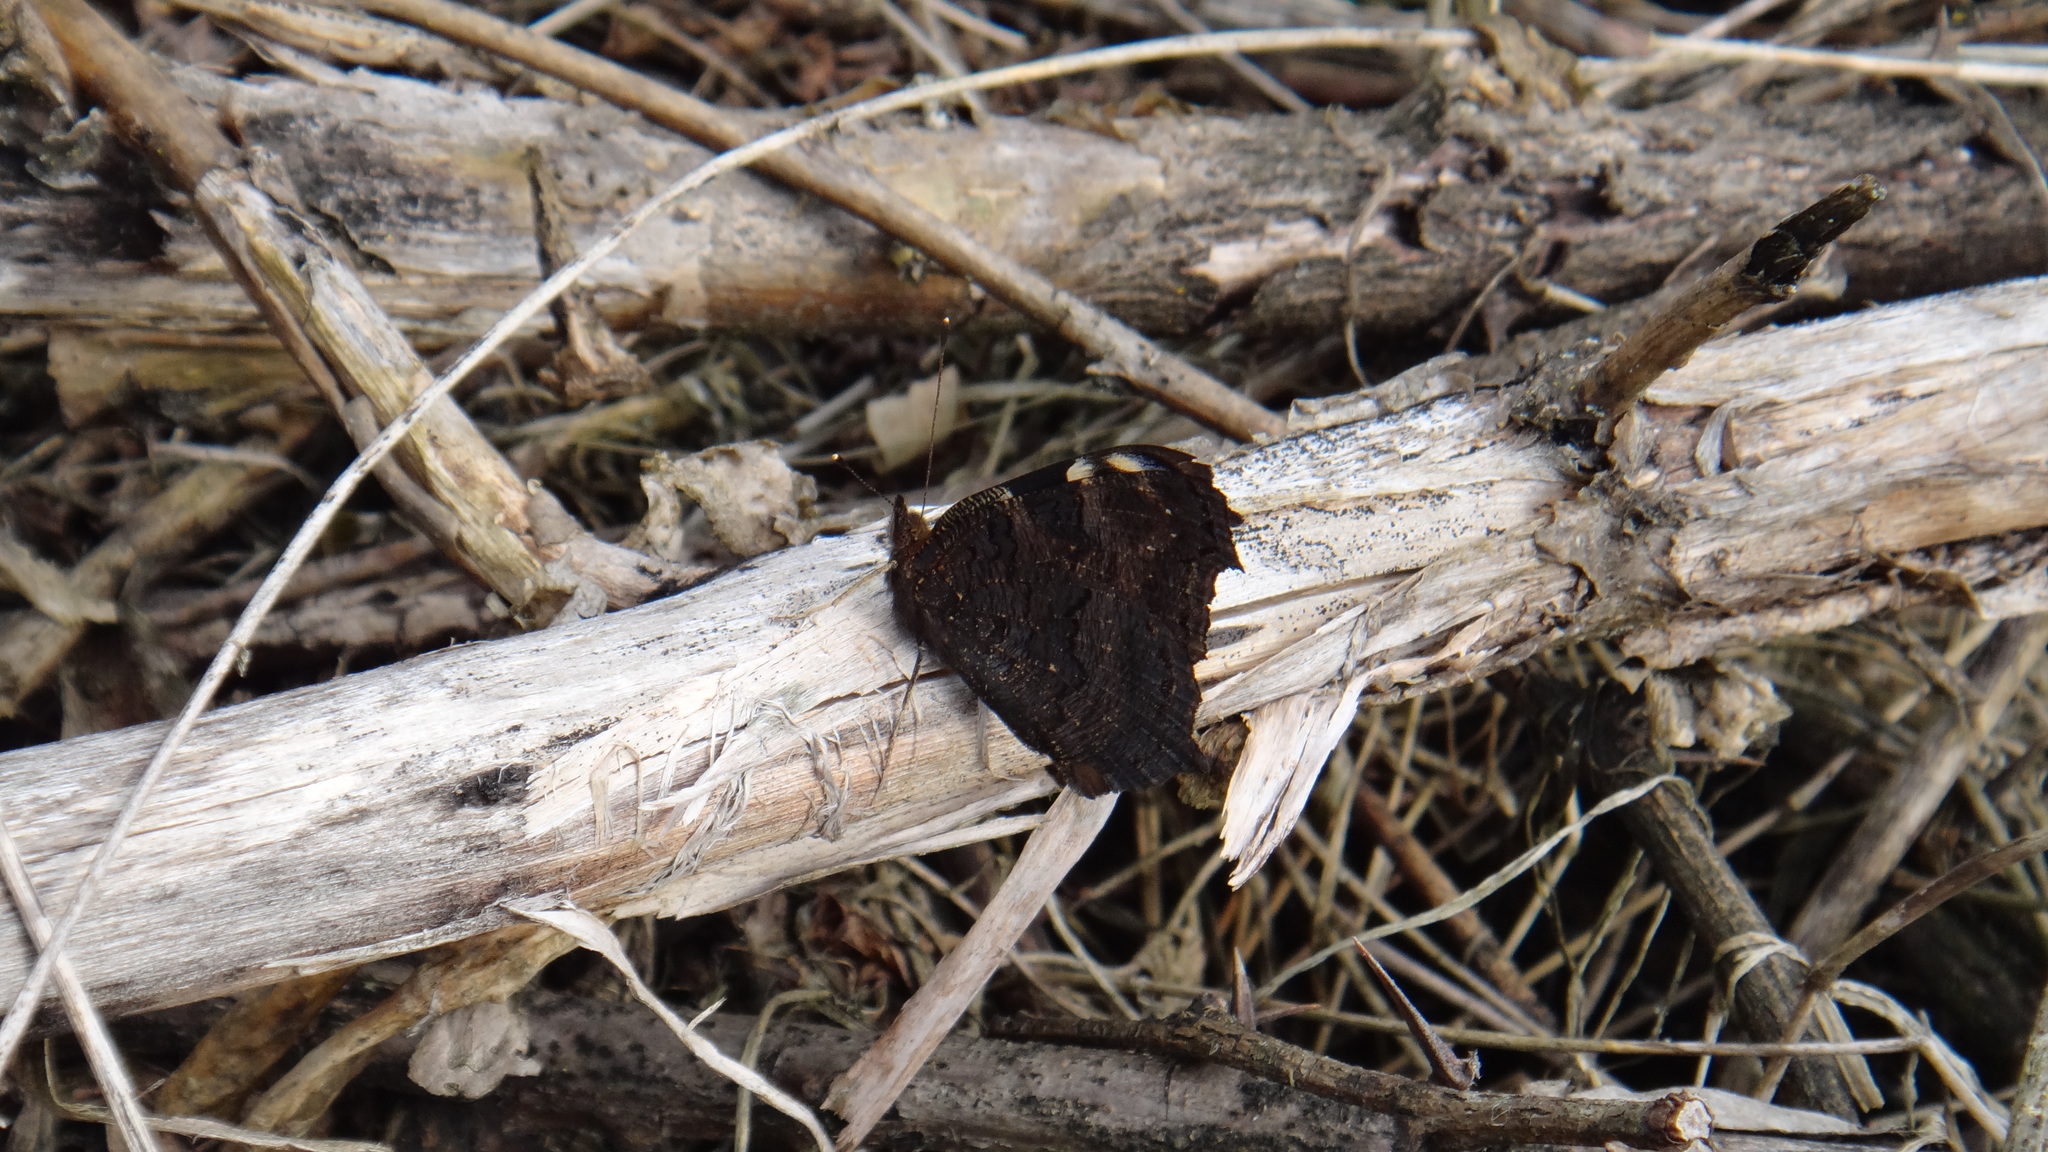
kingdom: Animalia
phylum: Arthropoda
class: Insecta
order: Lepidoptera
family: Nymphalidae
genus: Aglais
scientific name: Aglais io
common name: Peacock
